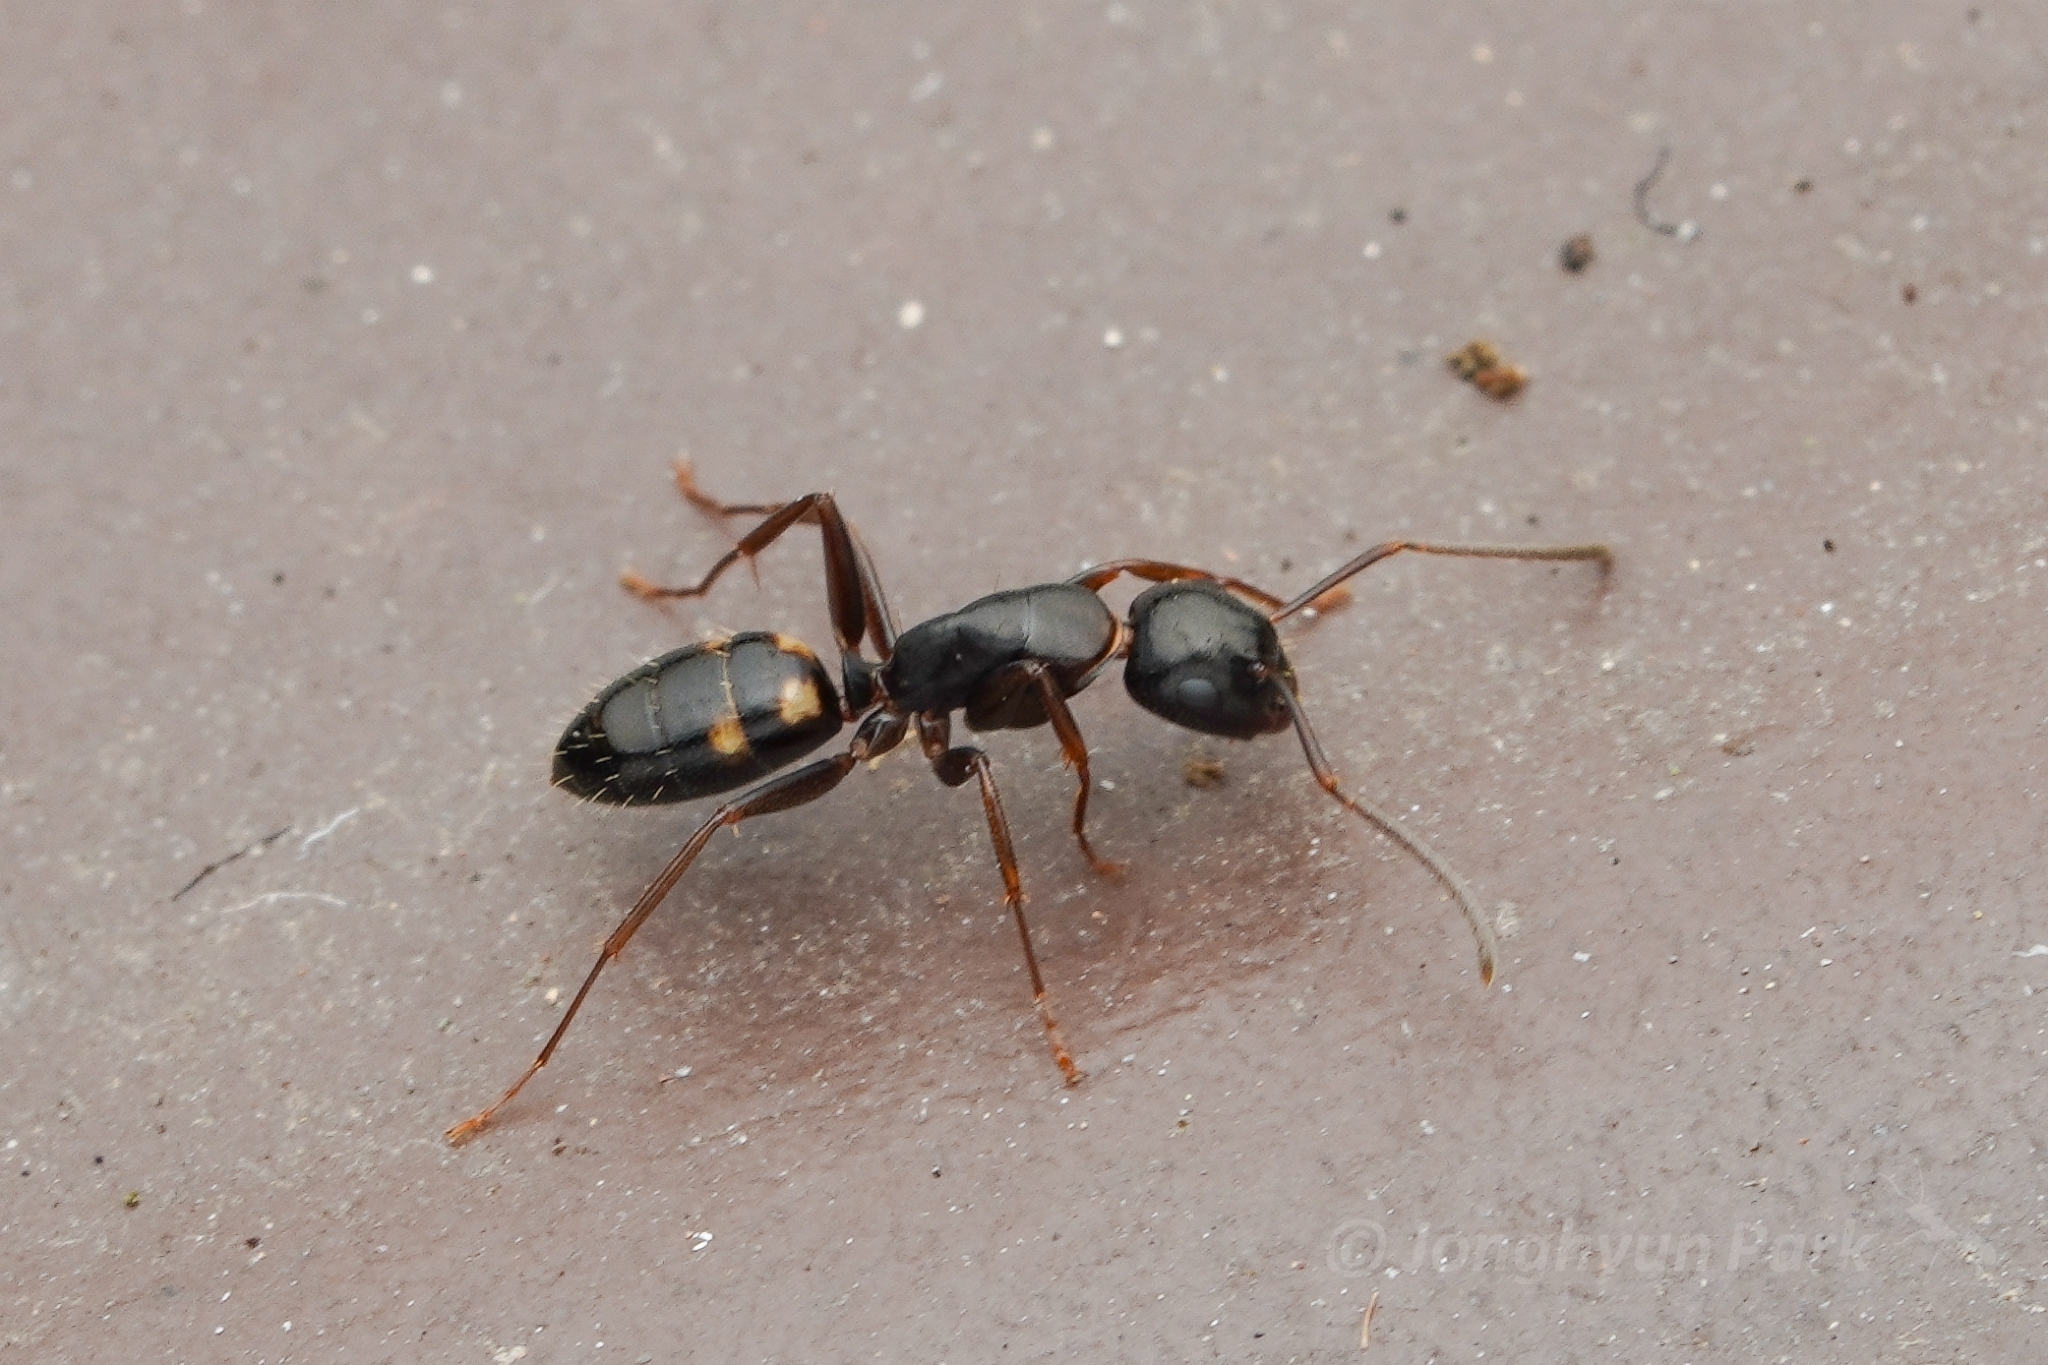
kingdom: Animalia
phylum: Arthropoda
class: Insecta
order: Hymenoptera
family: Formicidae
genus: Camponotus
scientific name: Camponotus quadrinotatus
